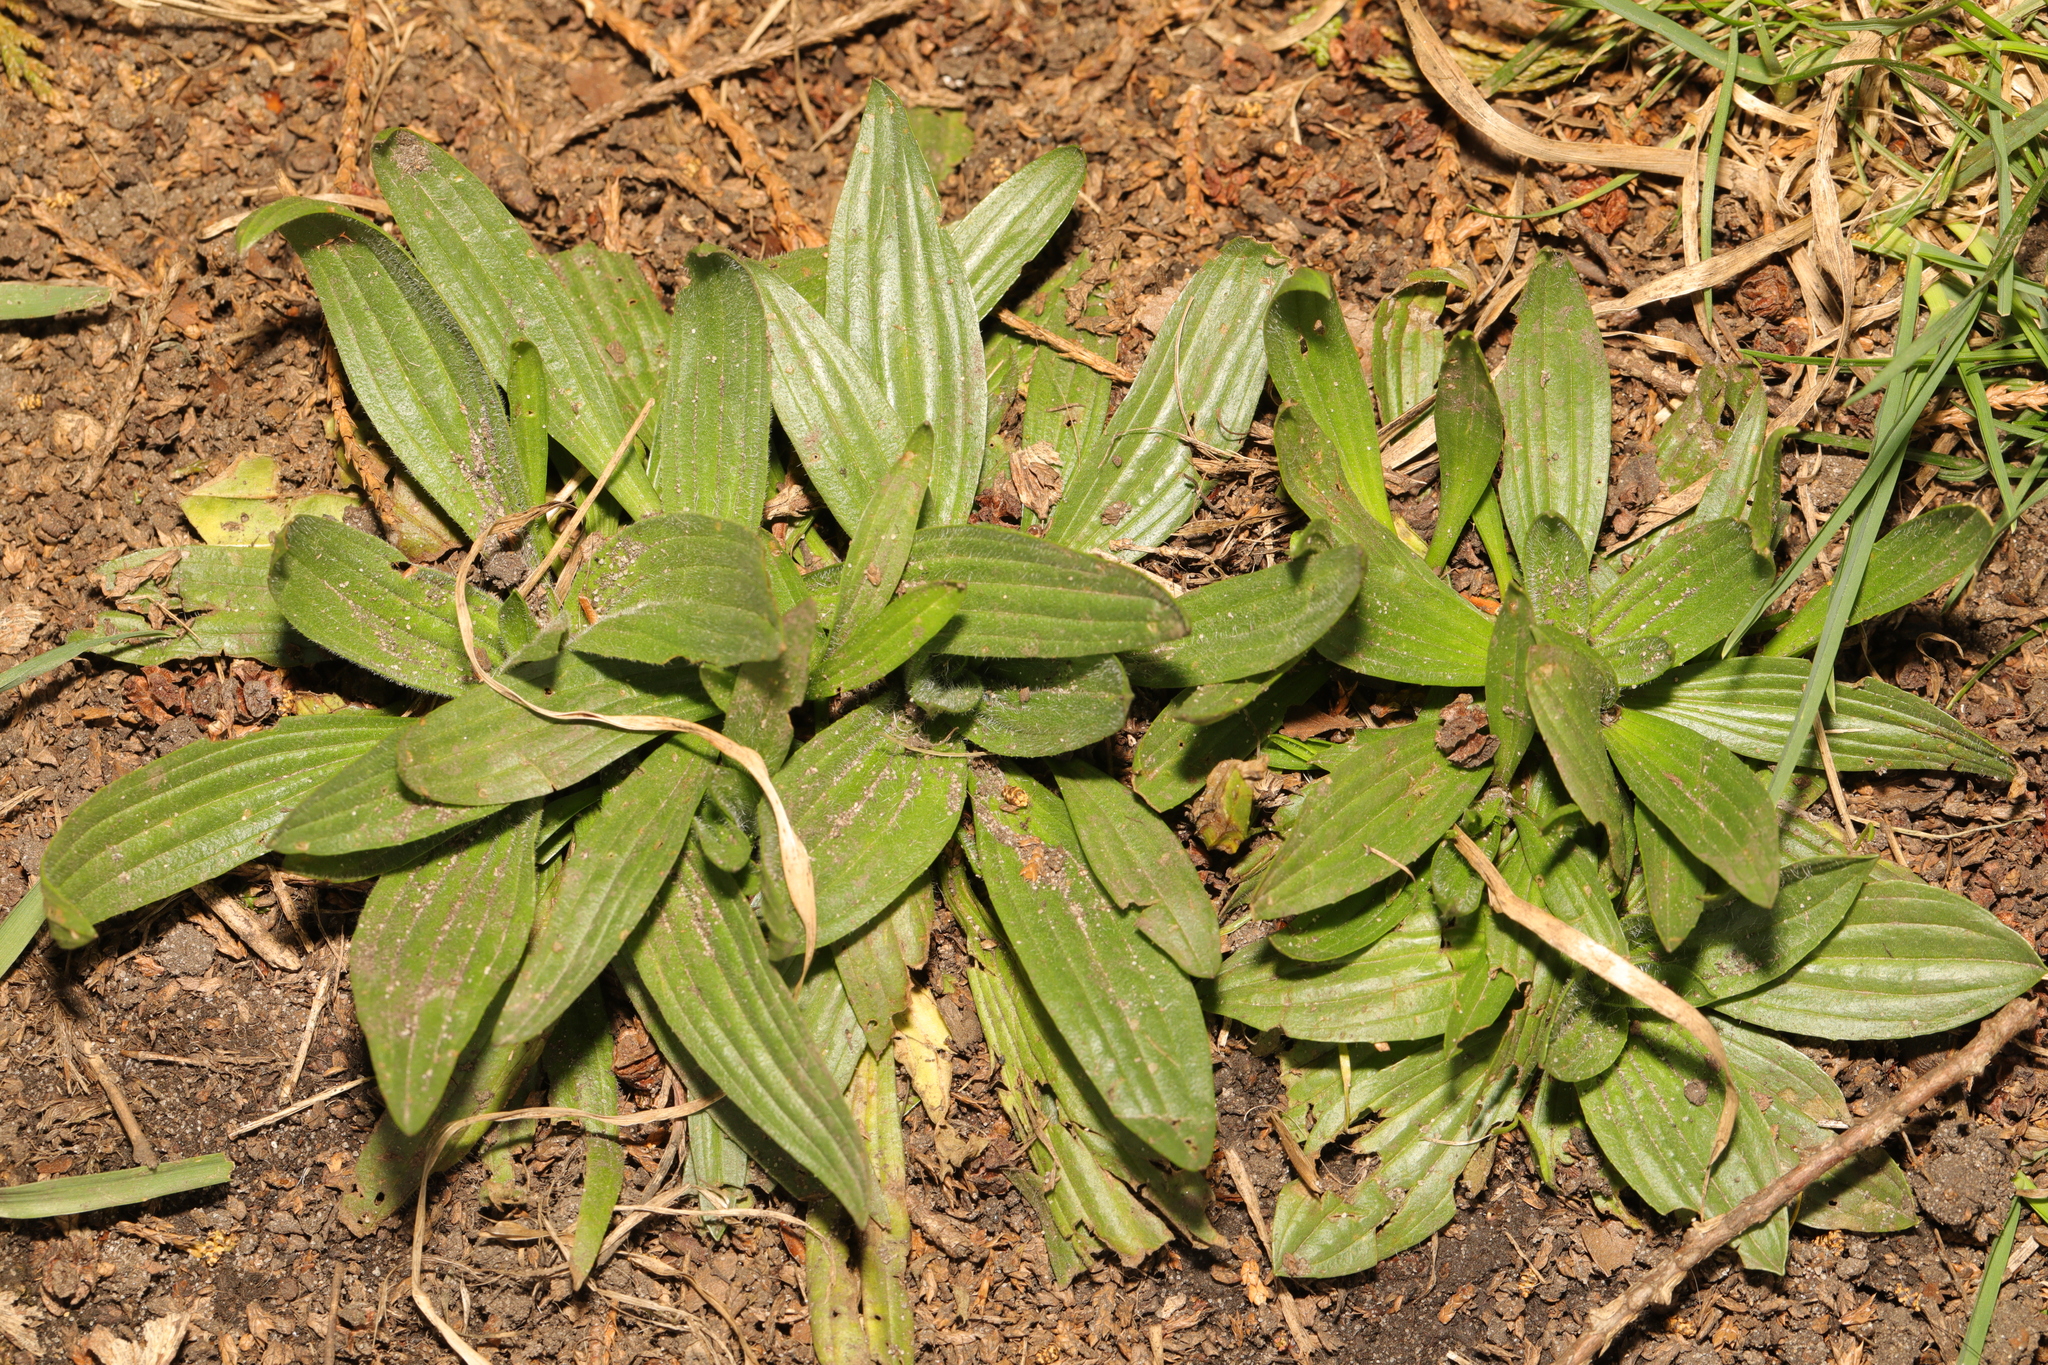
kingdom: Plantae
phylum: Tracheophyta
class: Magnoliopsida
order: Lamiales
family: Plantaginaceae
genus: Plantago
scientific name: Plantago lanceolata
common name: Ribwort plantain
